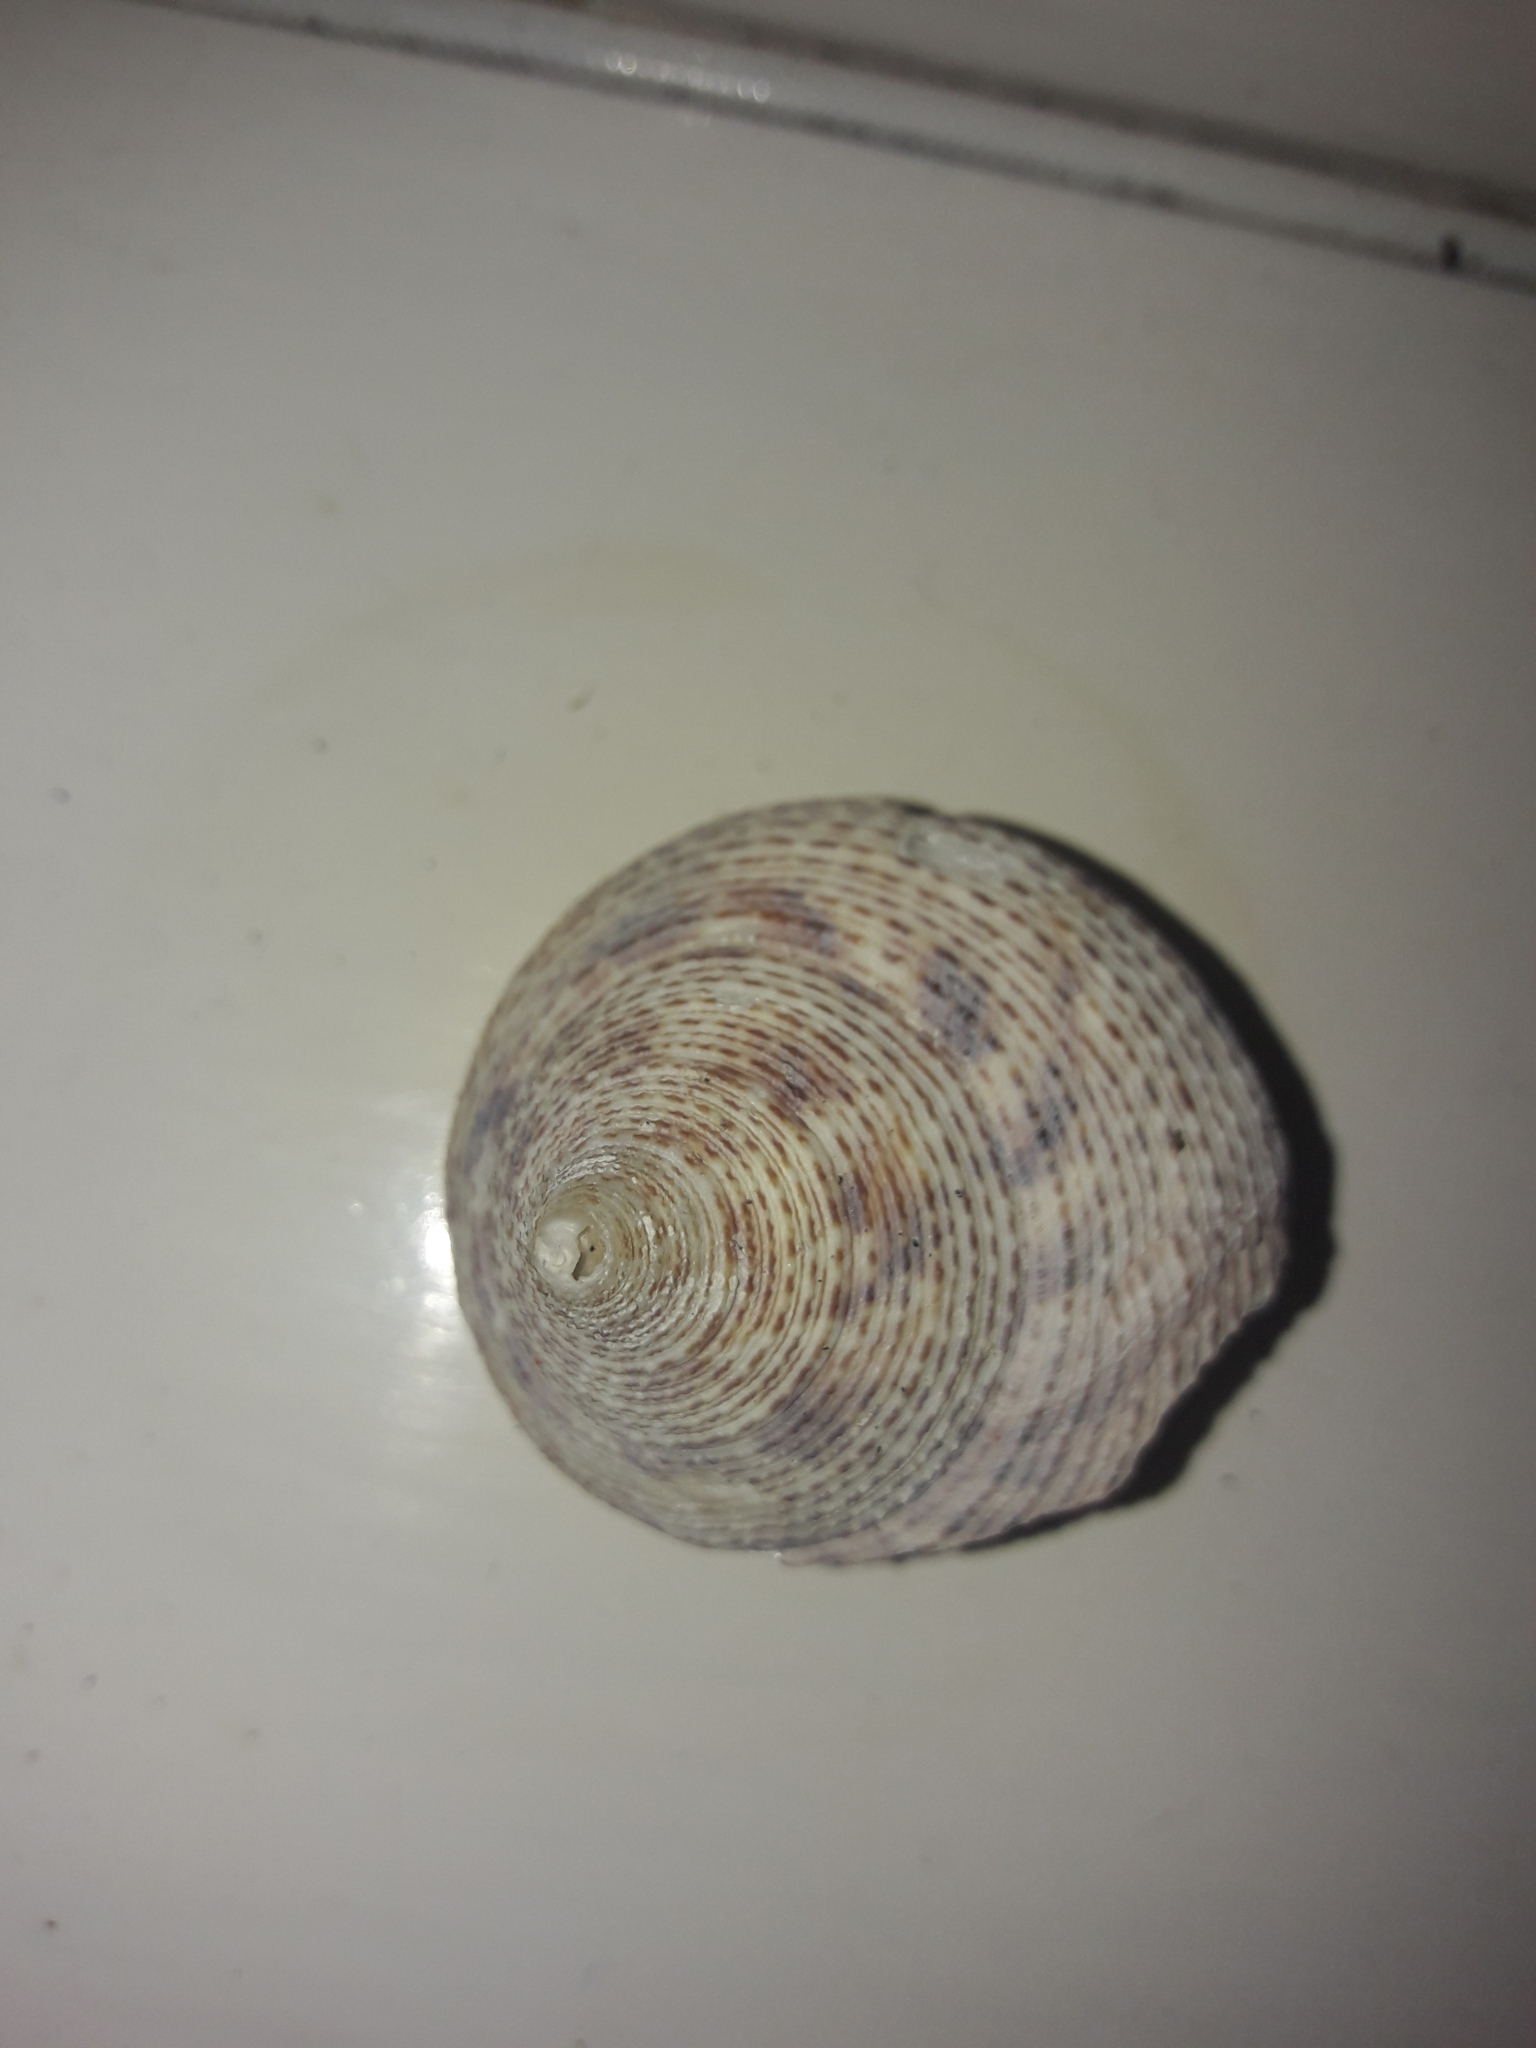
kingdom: Animalia
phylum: Mollusca
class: Gastropoda
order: Trochida
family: Calliostomatidae
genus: Maurea
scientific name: Maurea waikanae
